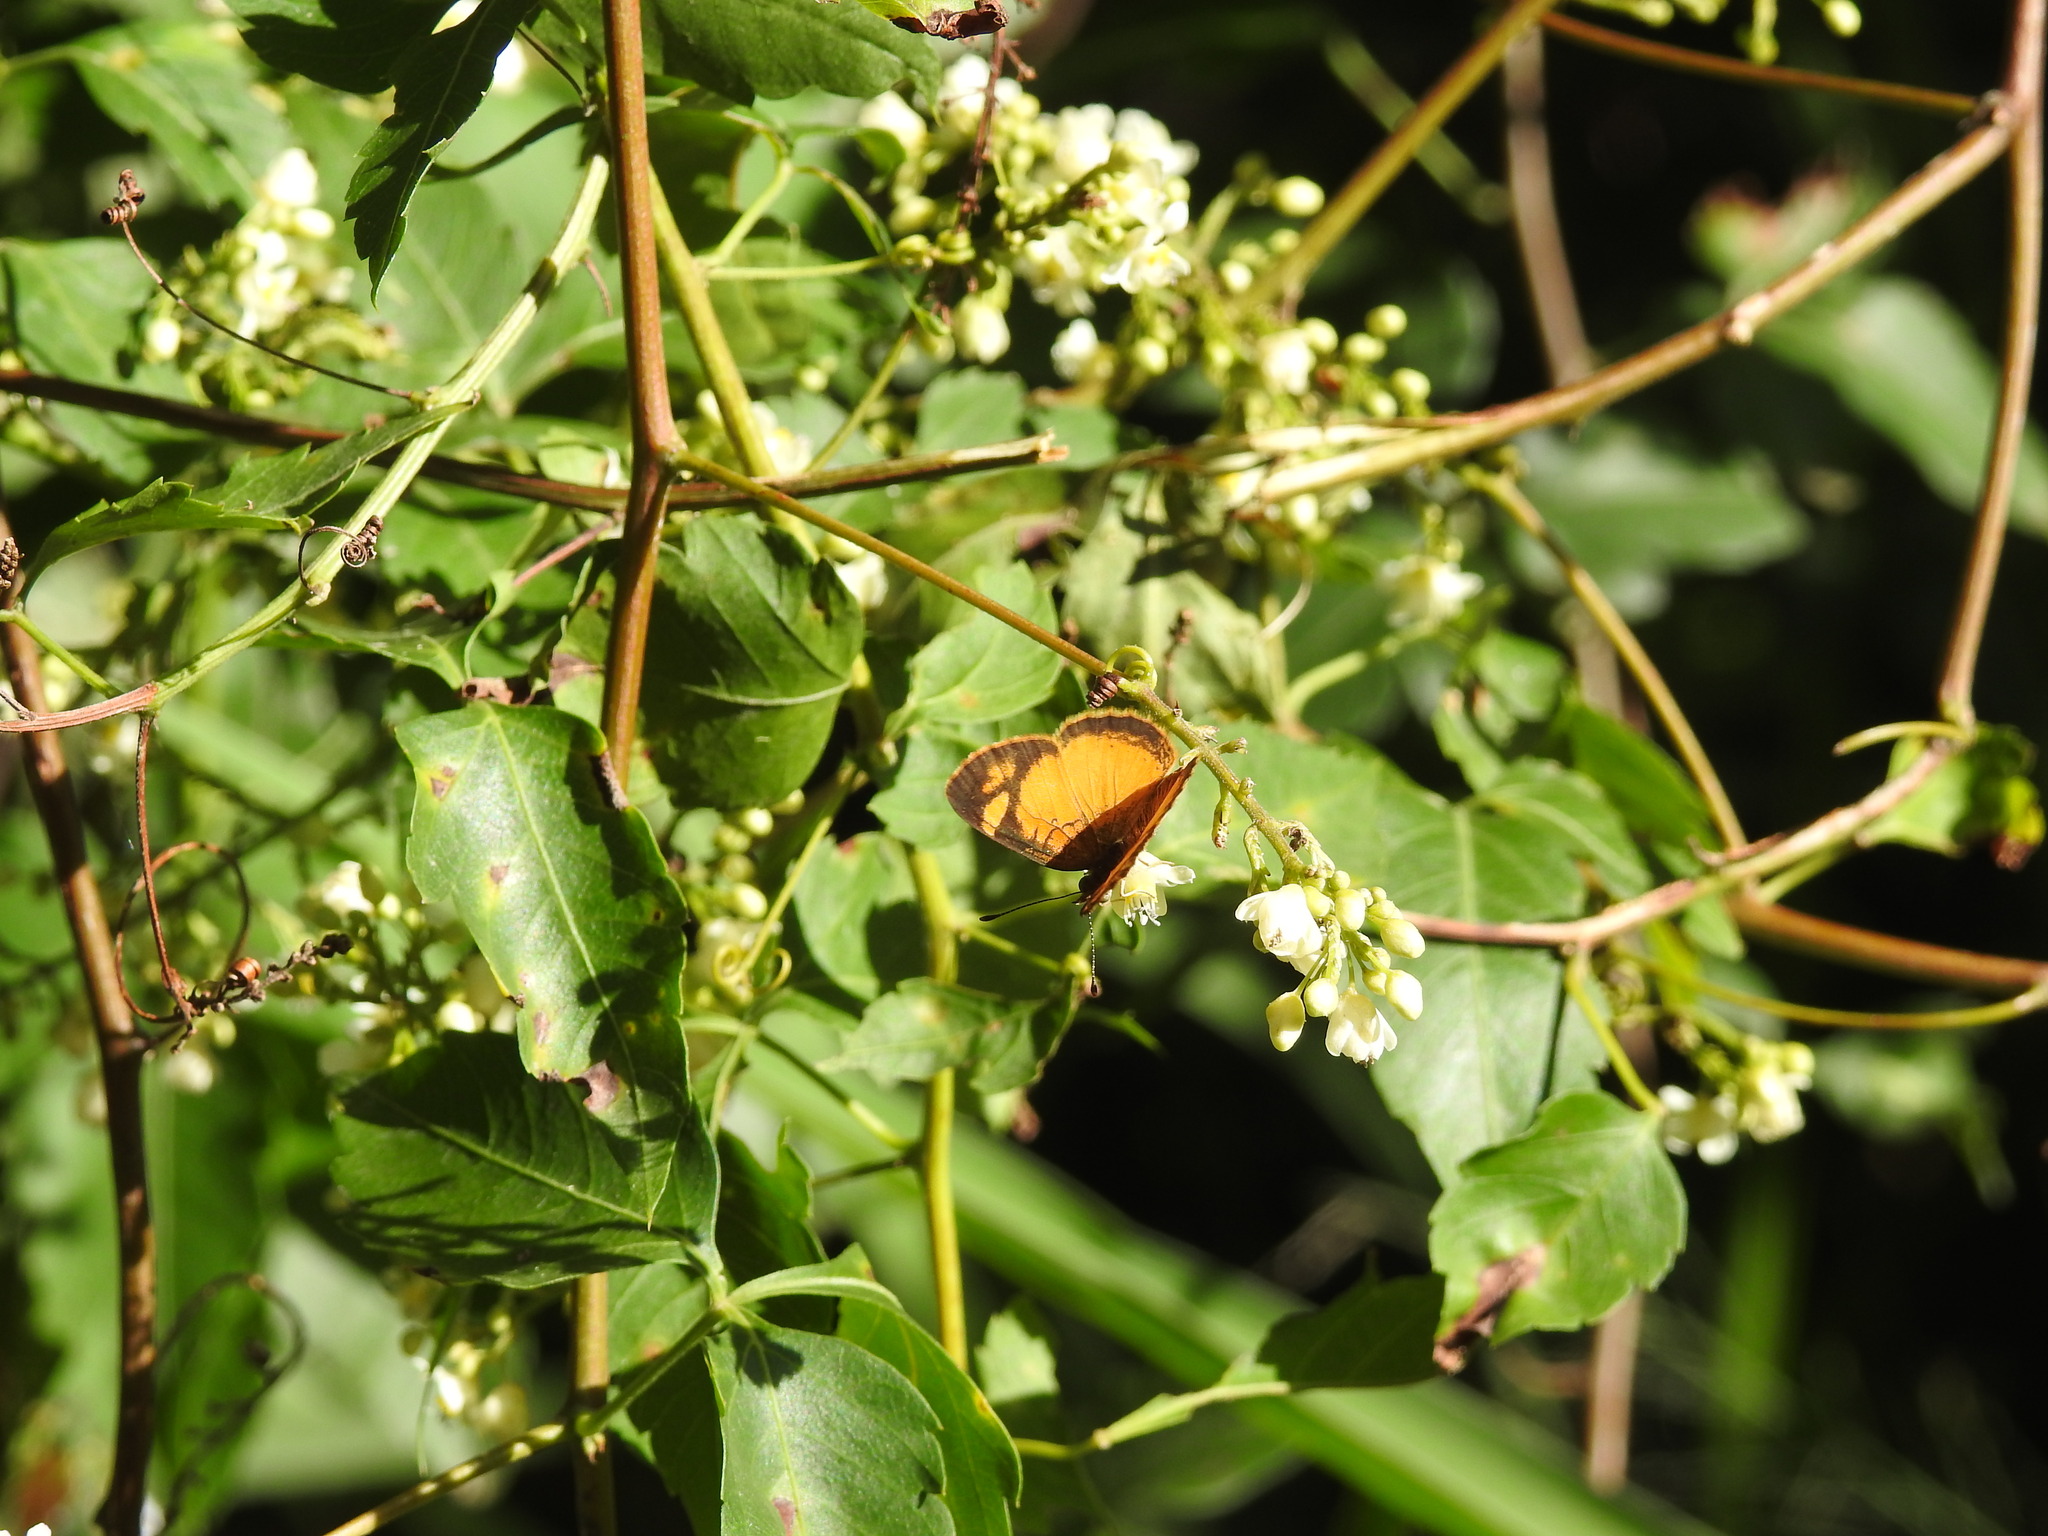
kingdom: Animalia
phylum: Arthropoda
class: Insecta
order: Lepidoptera
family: Nymphalidae
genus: Tegosa
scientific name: Tegosa claudina
